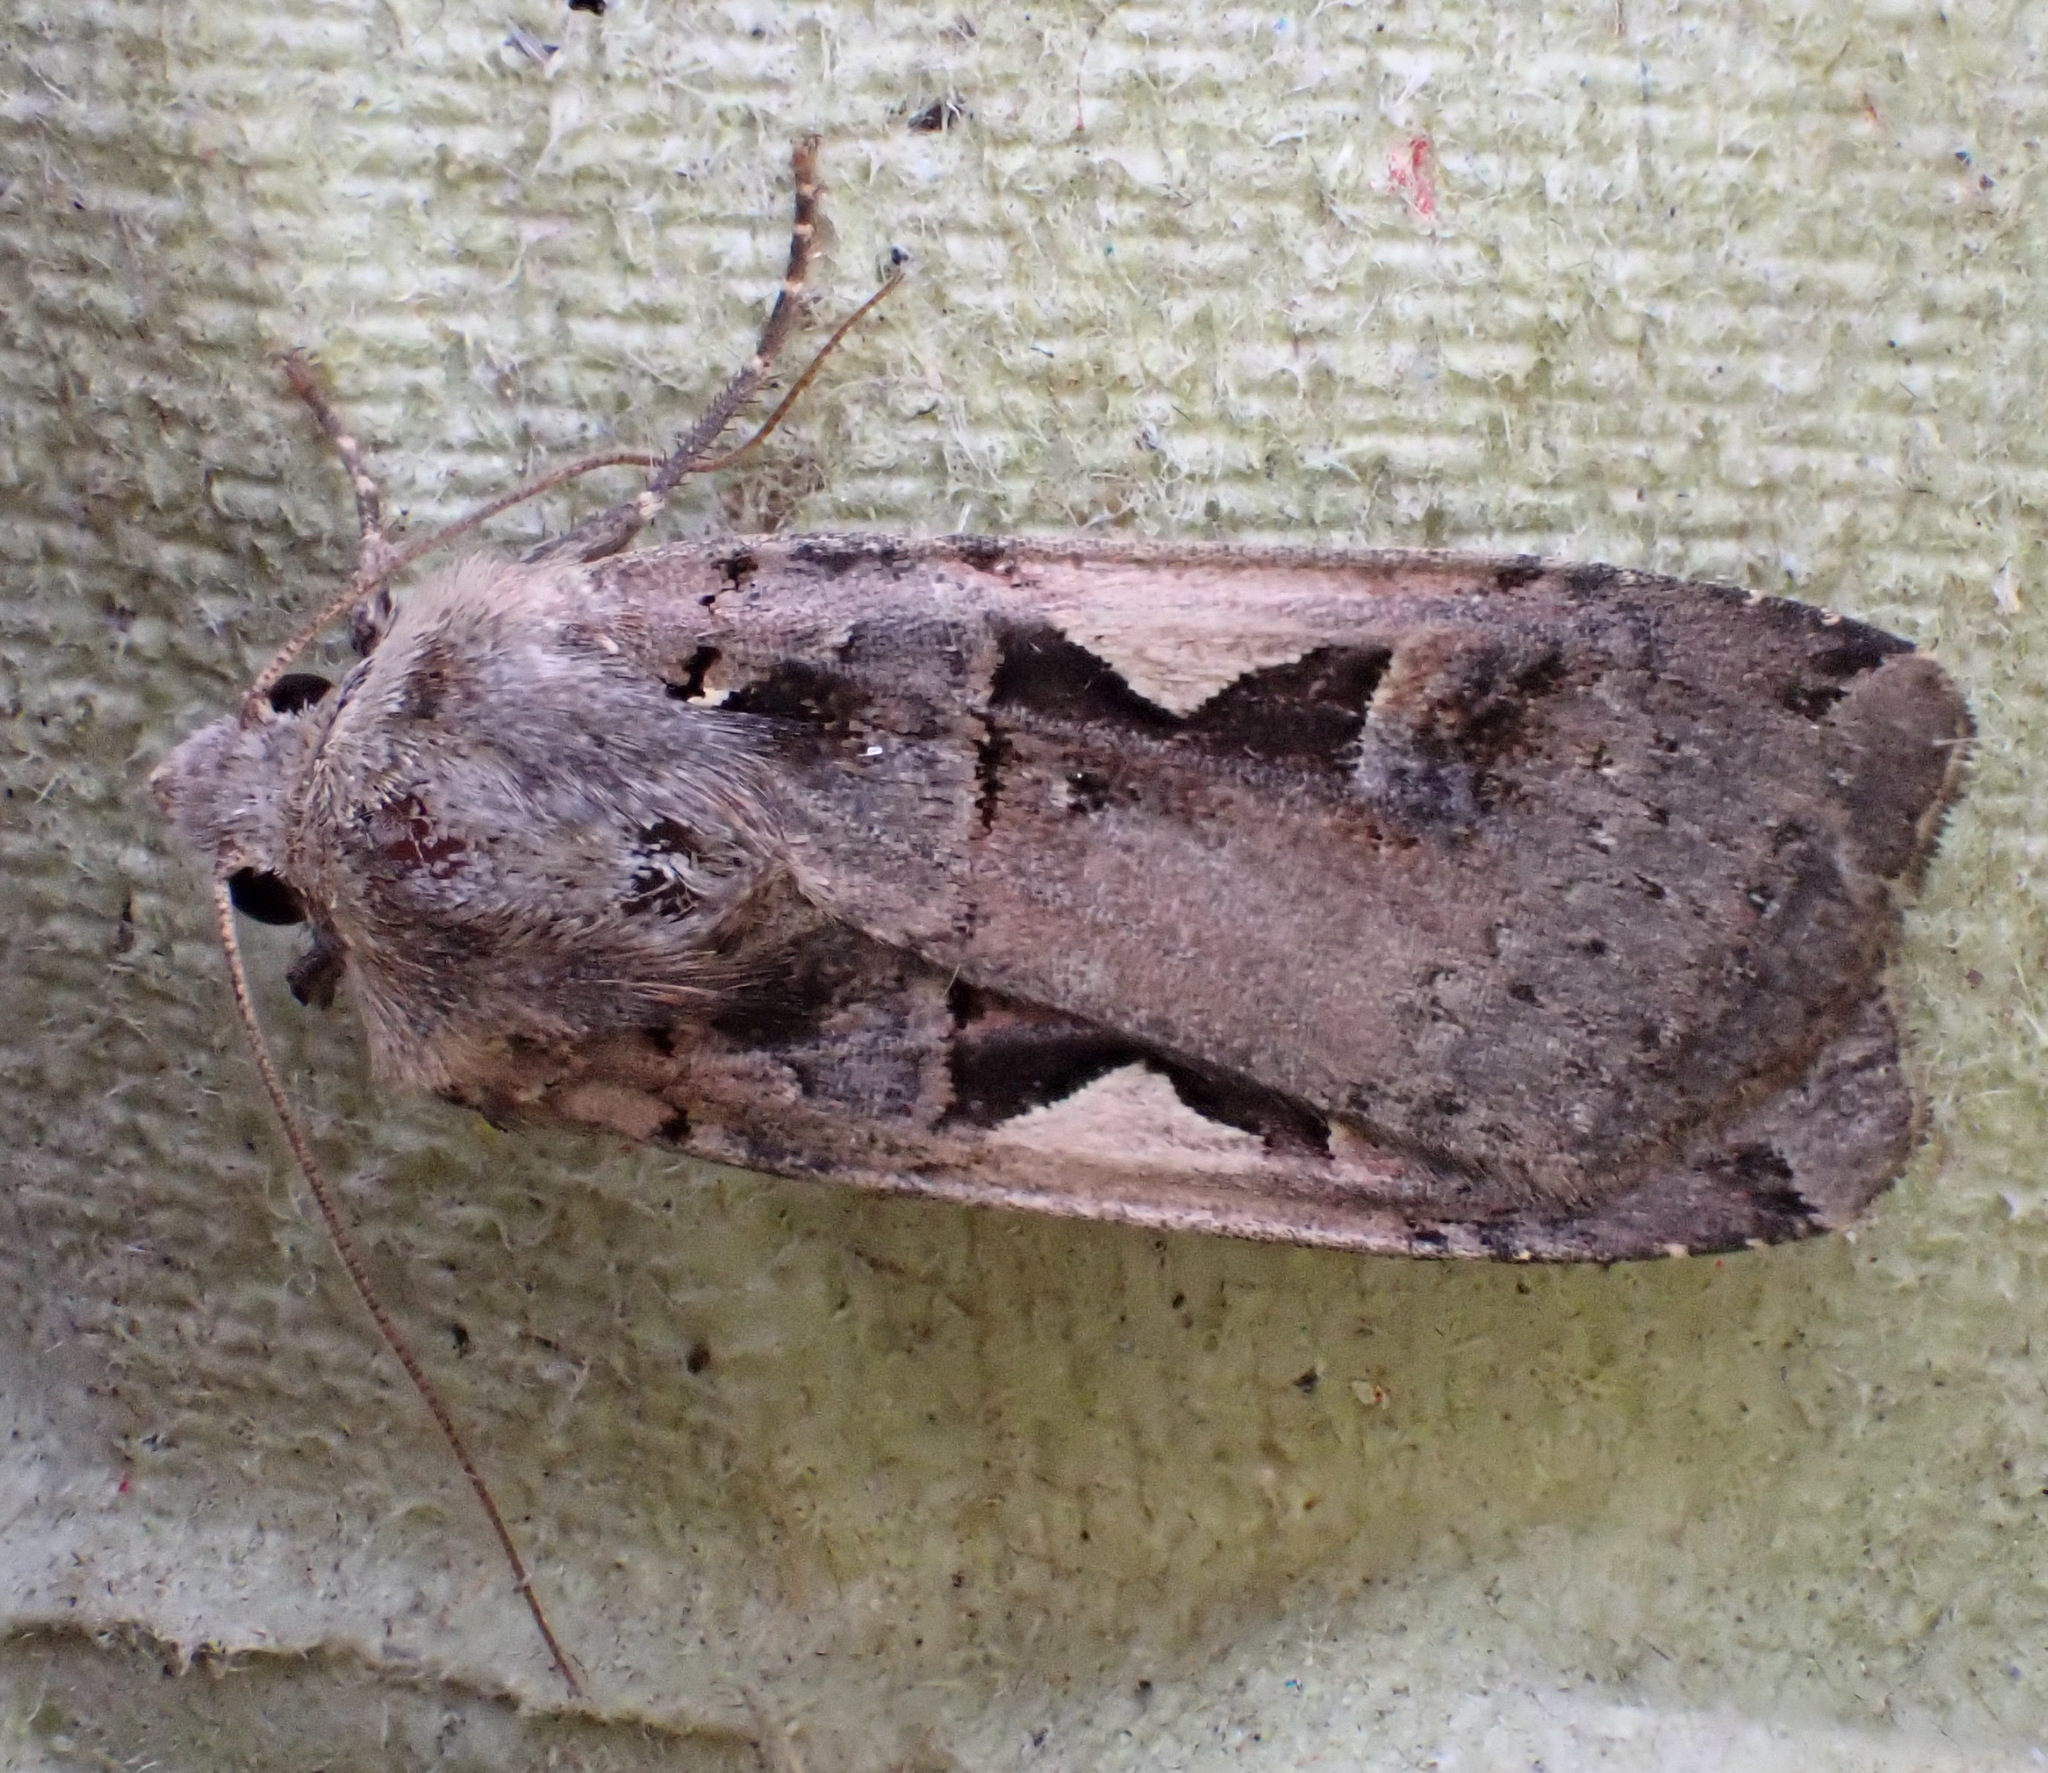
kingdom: Animalia
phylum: Arthropoda
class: Insecta
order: Lepidoptera
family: Noctuidae
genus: Xestia
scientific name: Xestia c-nigrum
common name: Setaceous hebrew character
